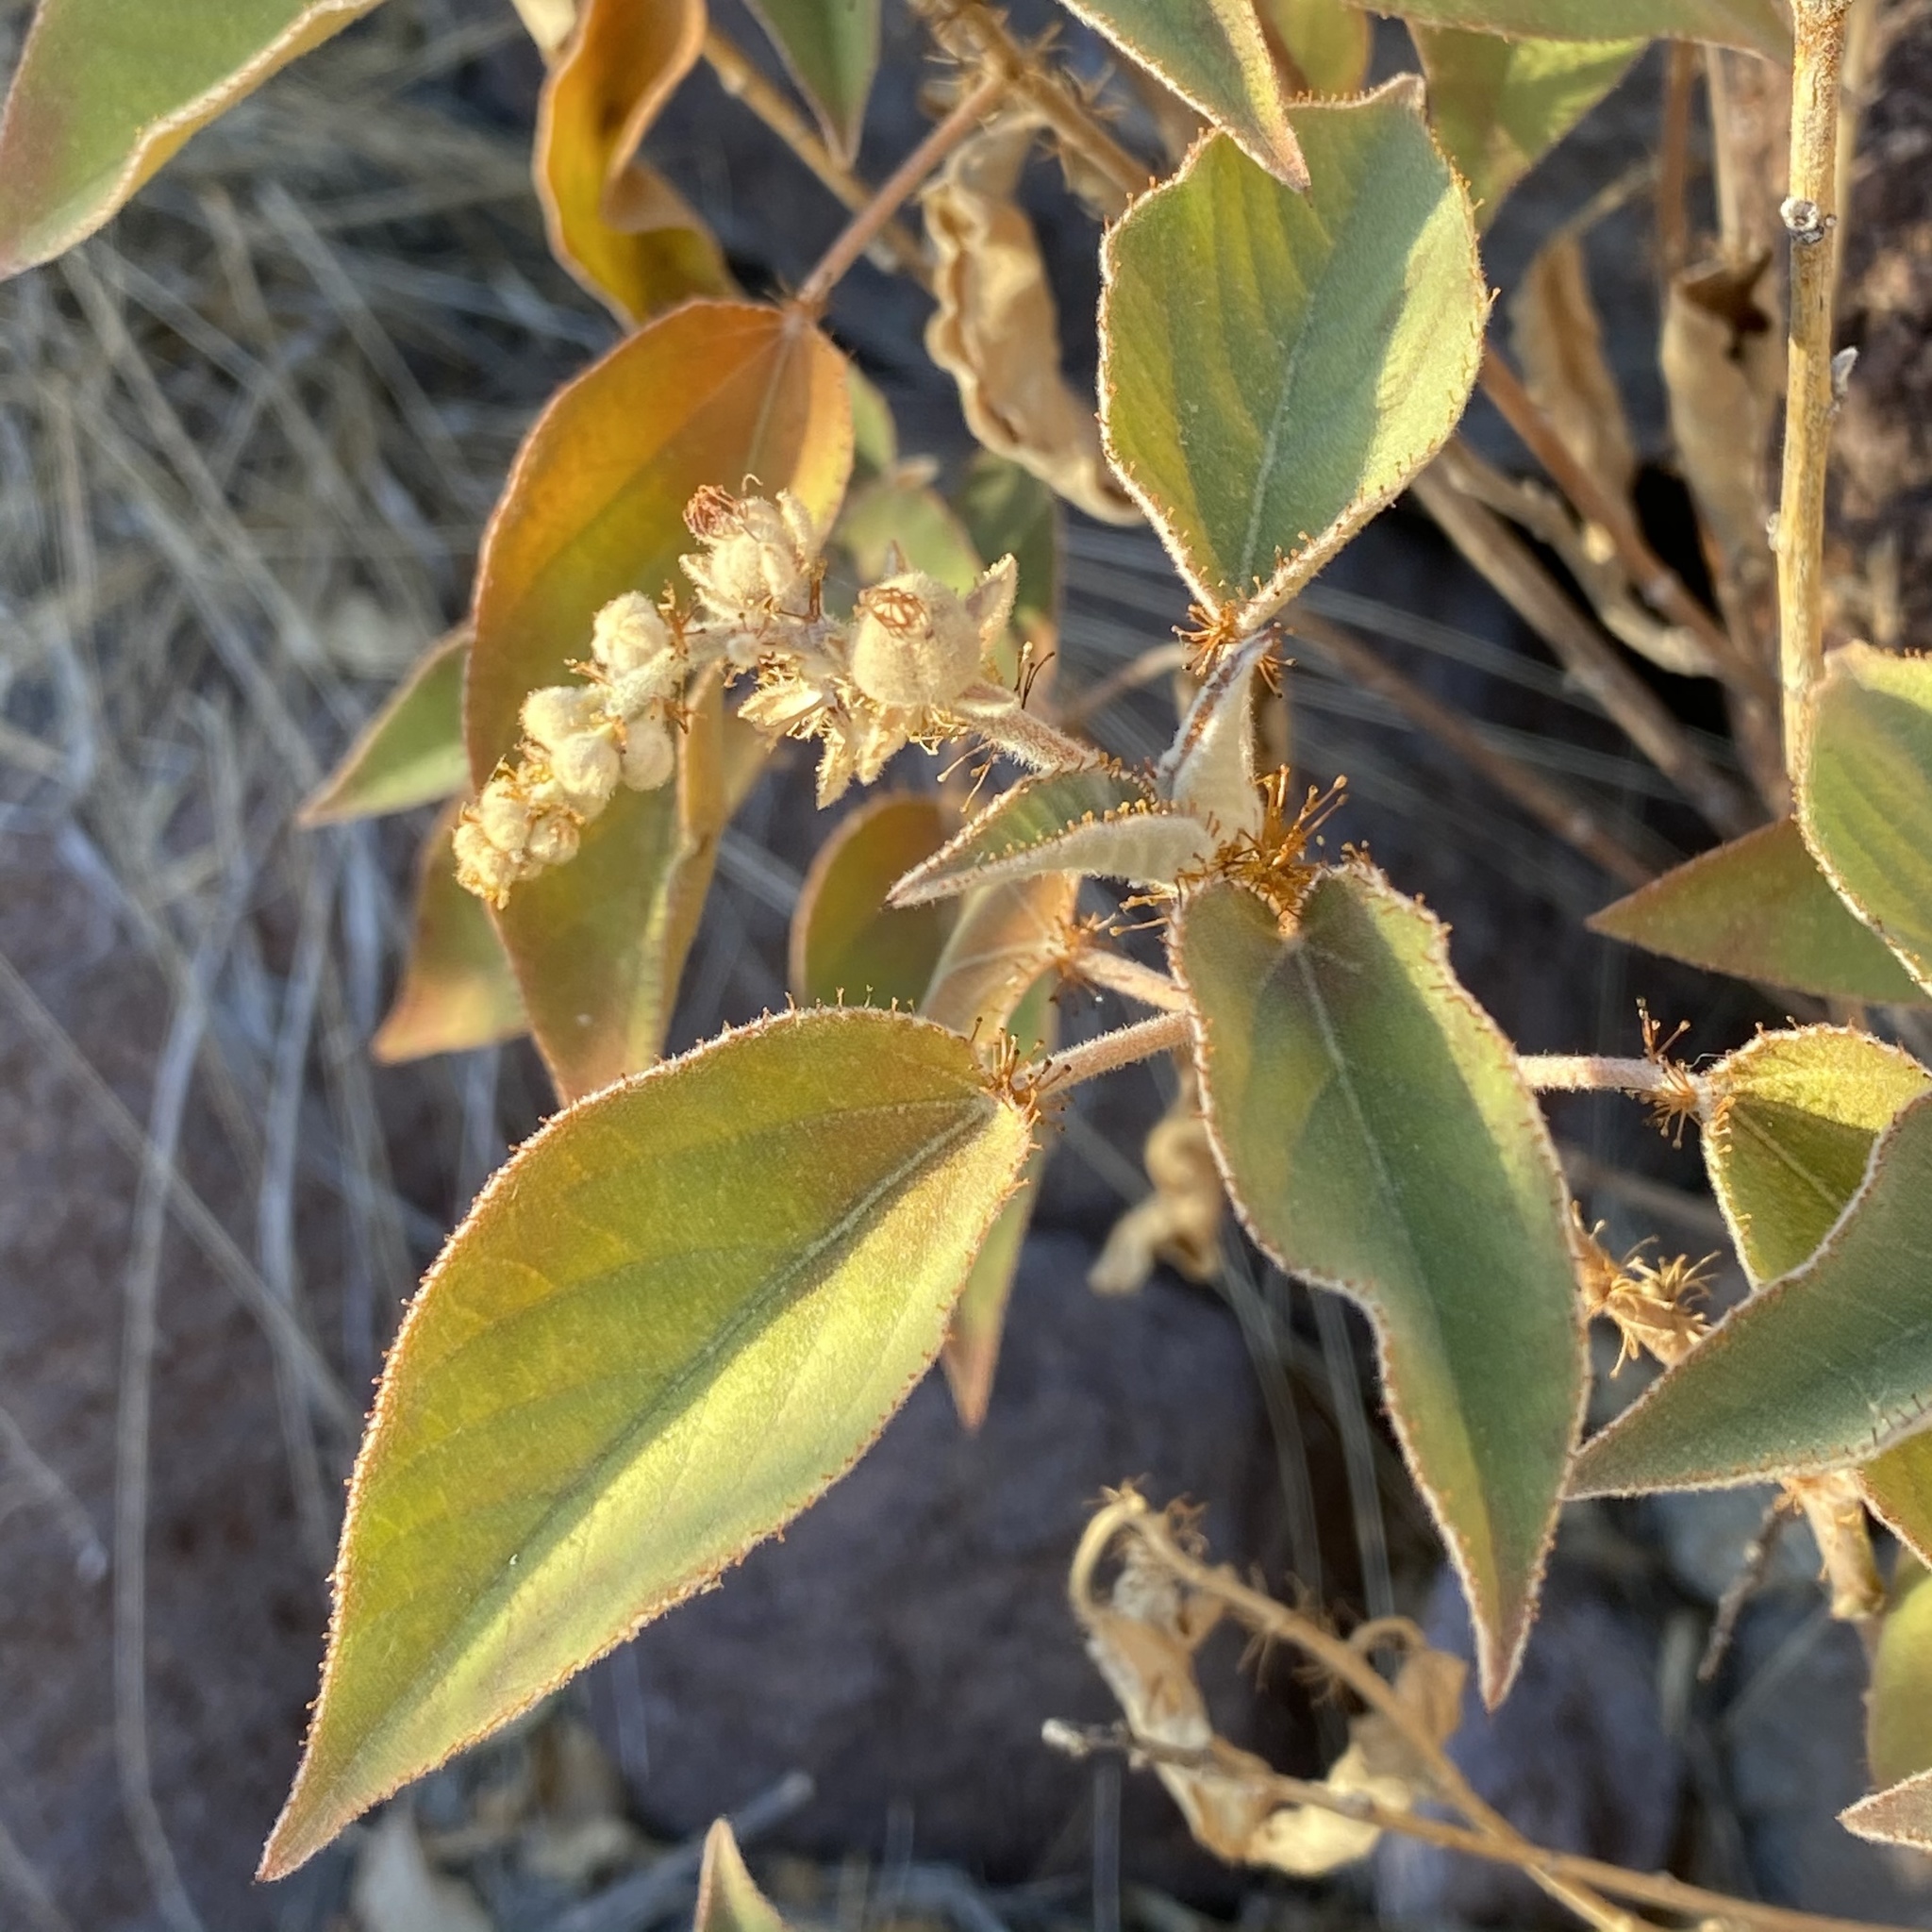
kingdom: Plantae
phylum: Tracheophyta
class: Magnoliopsida
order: Malpighiales
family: Euphorbiaceae
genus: Croton
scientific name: Croton ciliatoglandulifer
